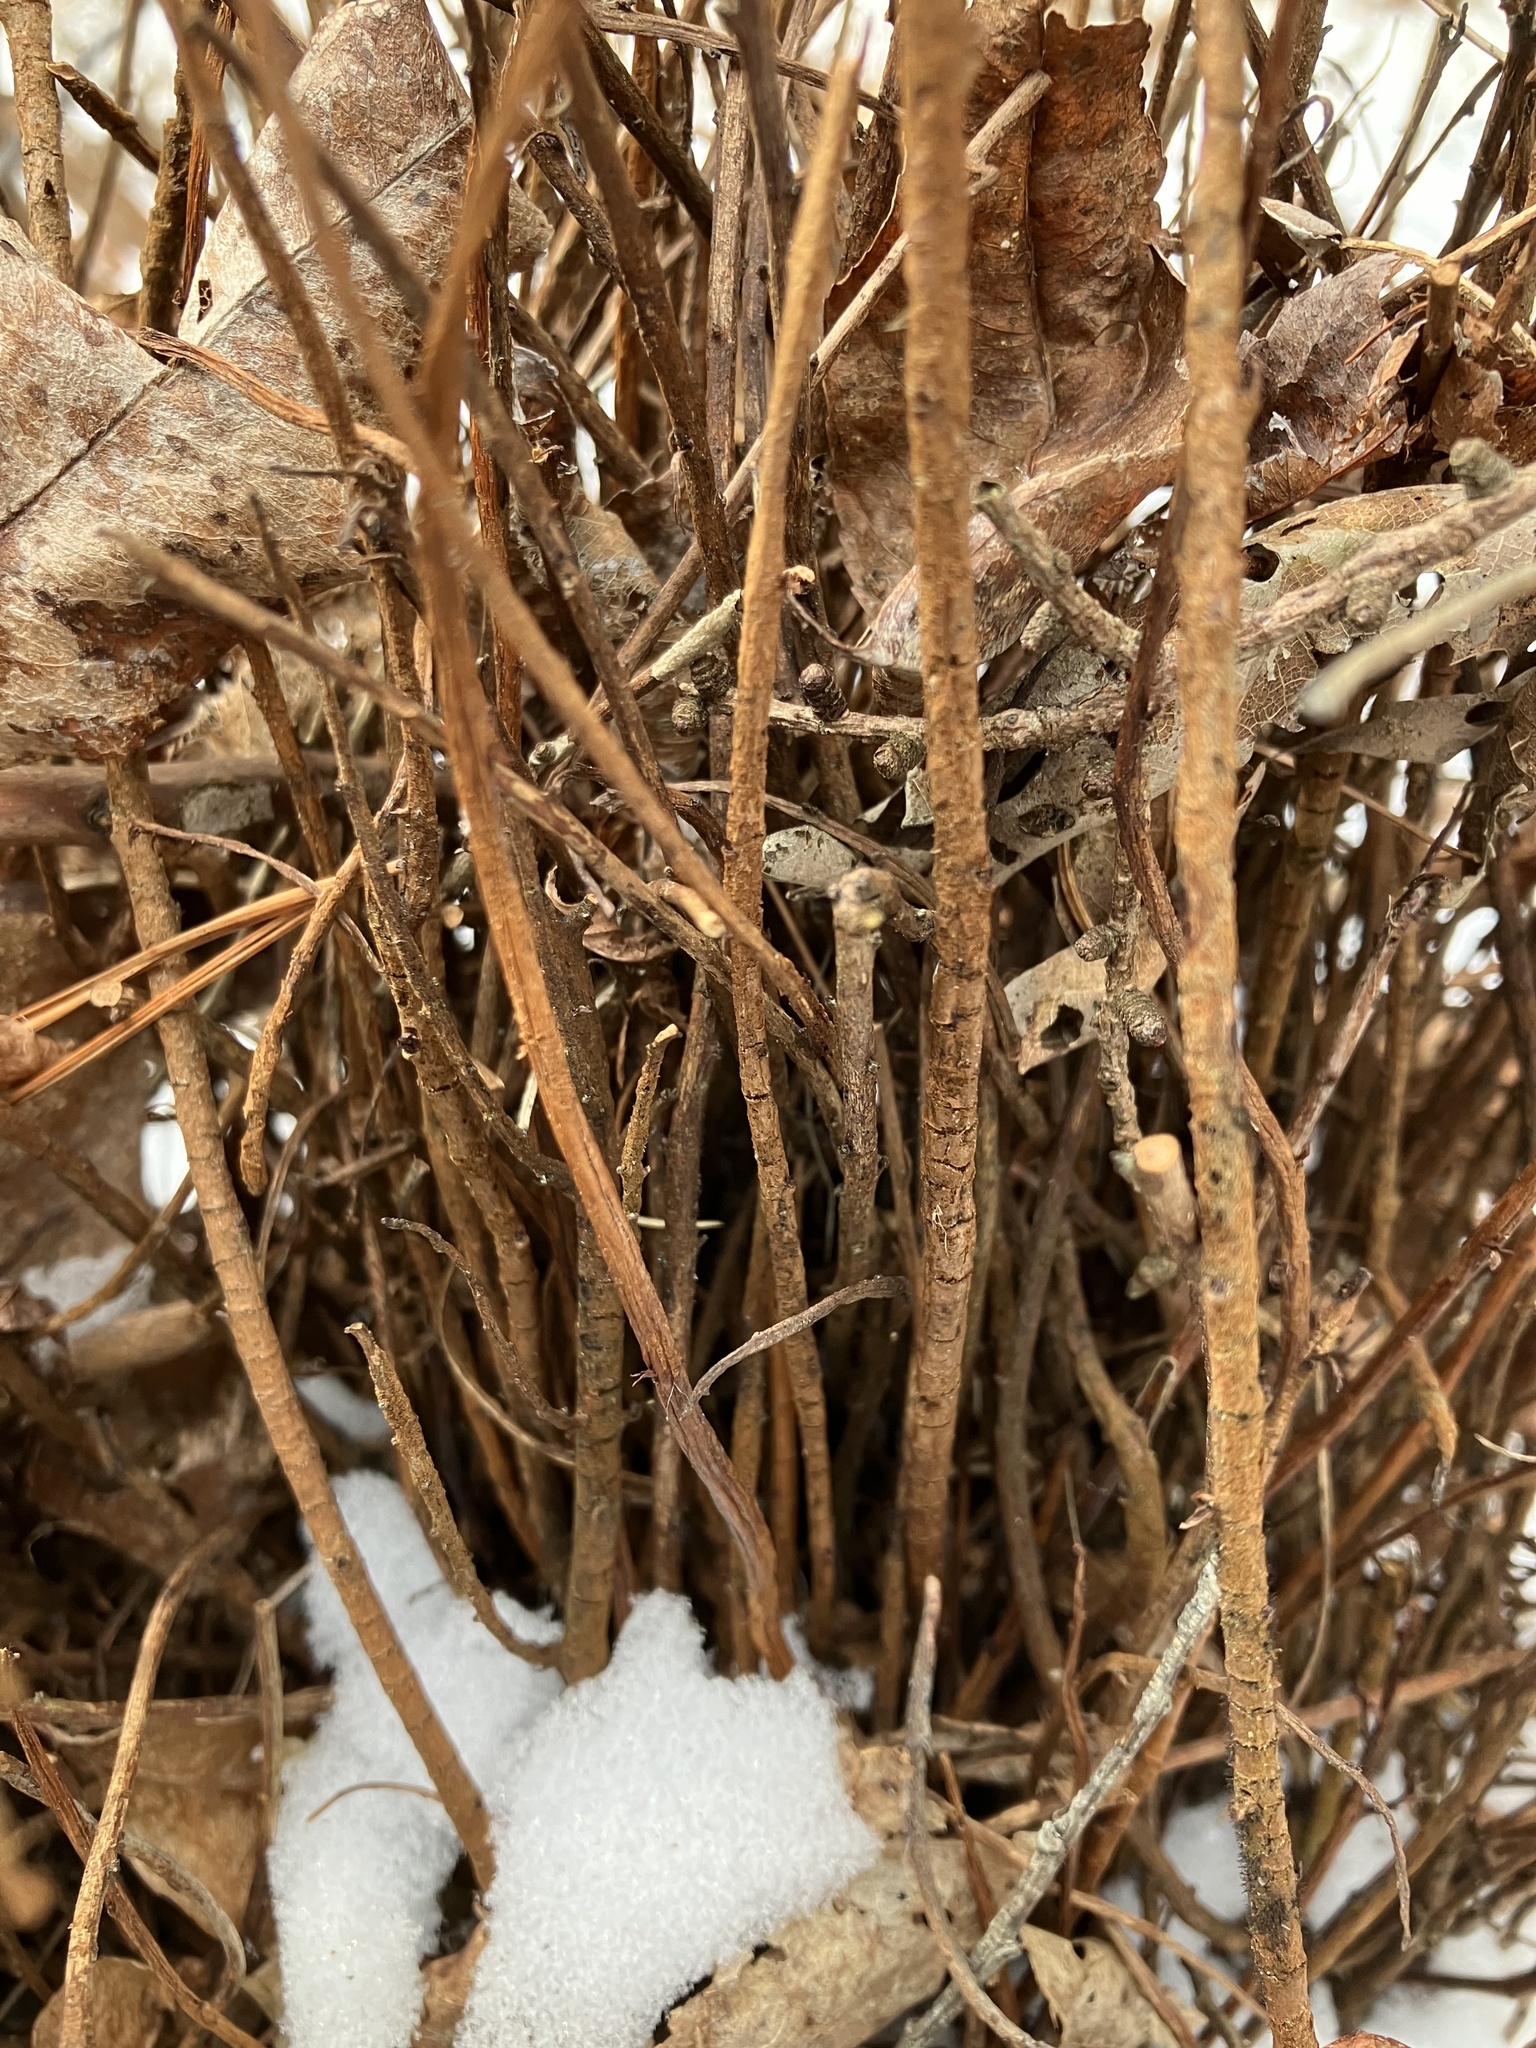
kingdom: Fungi
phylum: Basidiomycota
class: Pucciniomycetes
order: Pucciniales
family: Pucciniastraceae
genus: Calyptospora
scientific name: Calyptospora columnaris
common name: Huckleberry broom rust fungus
